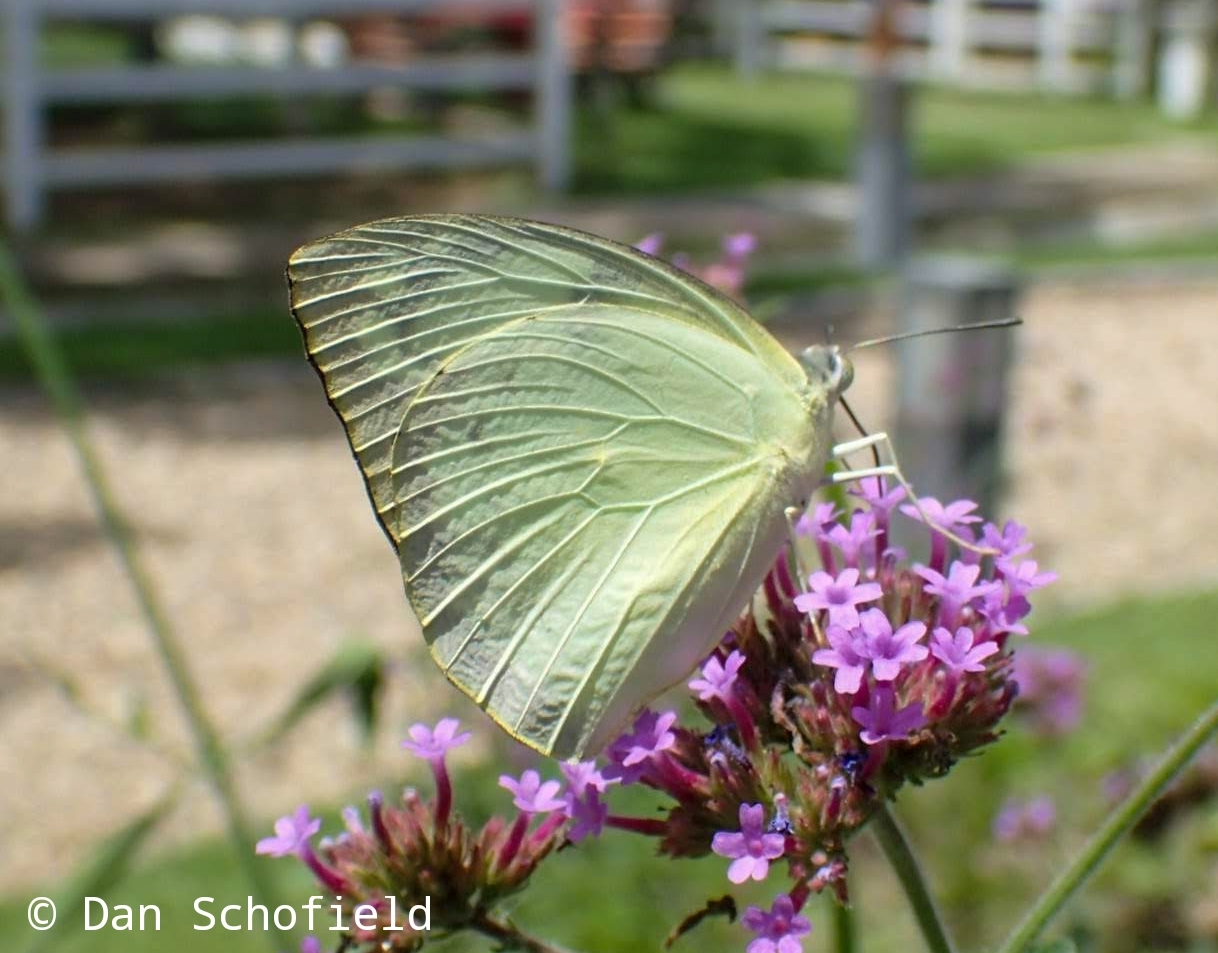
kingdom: Animalia
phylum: Arthropoda
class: Insecta
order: Lepidoptera
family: Pieridae
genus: Catopsilia
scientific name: Catopsilia pomona
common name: Common emigrant
